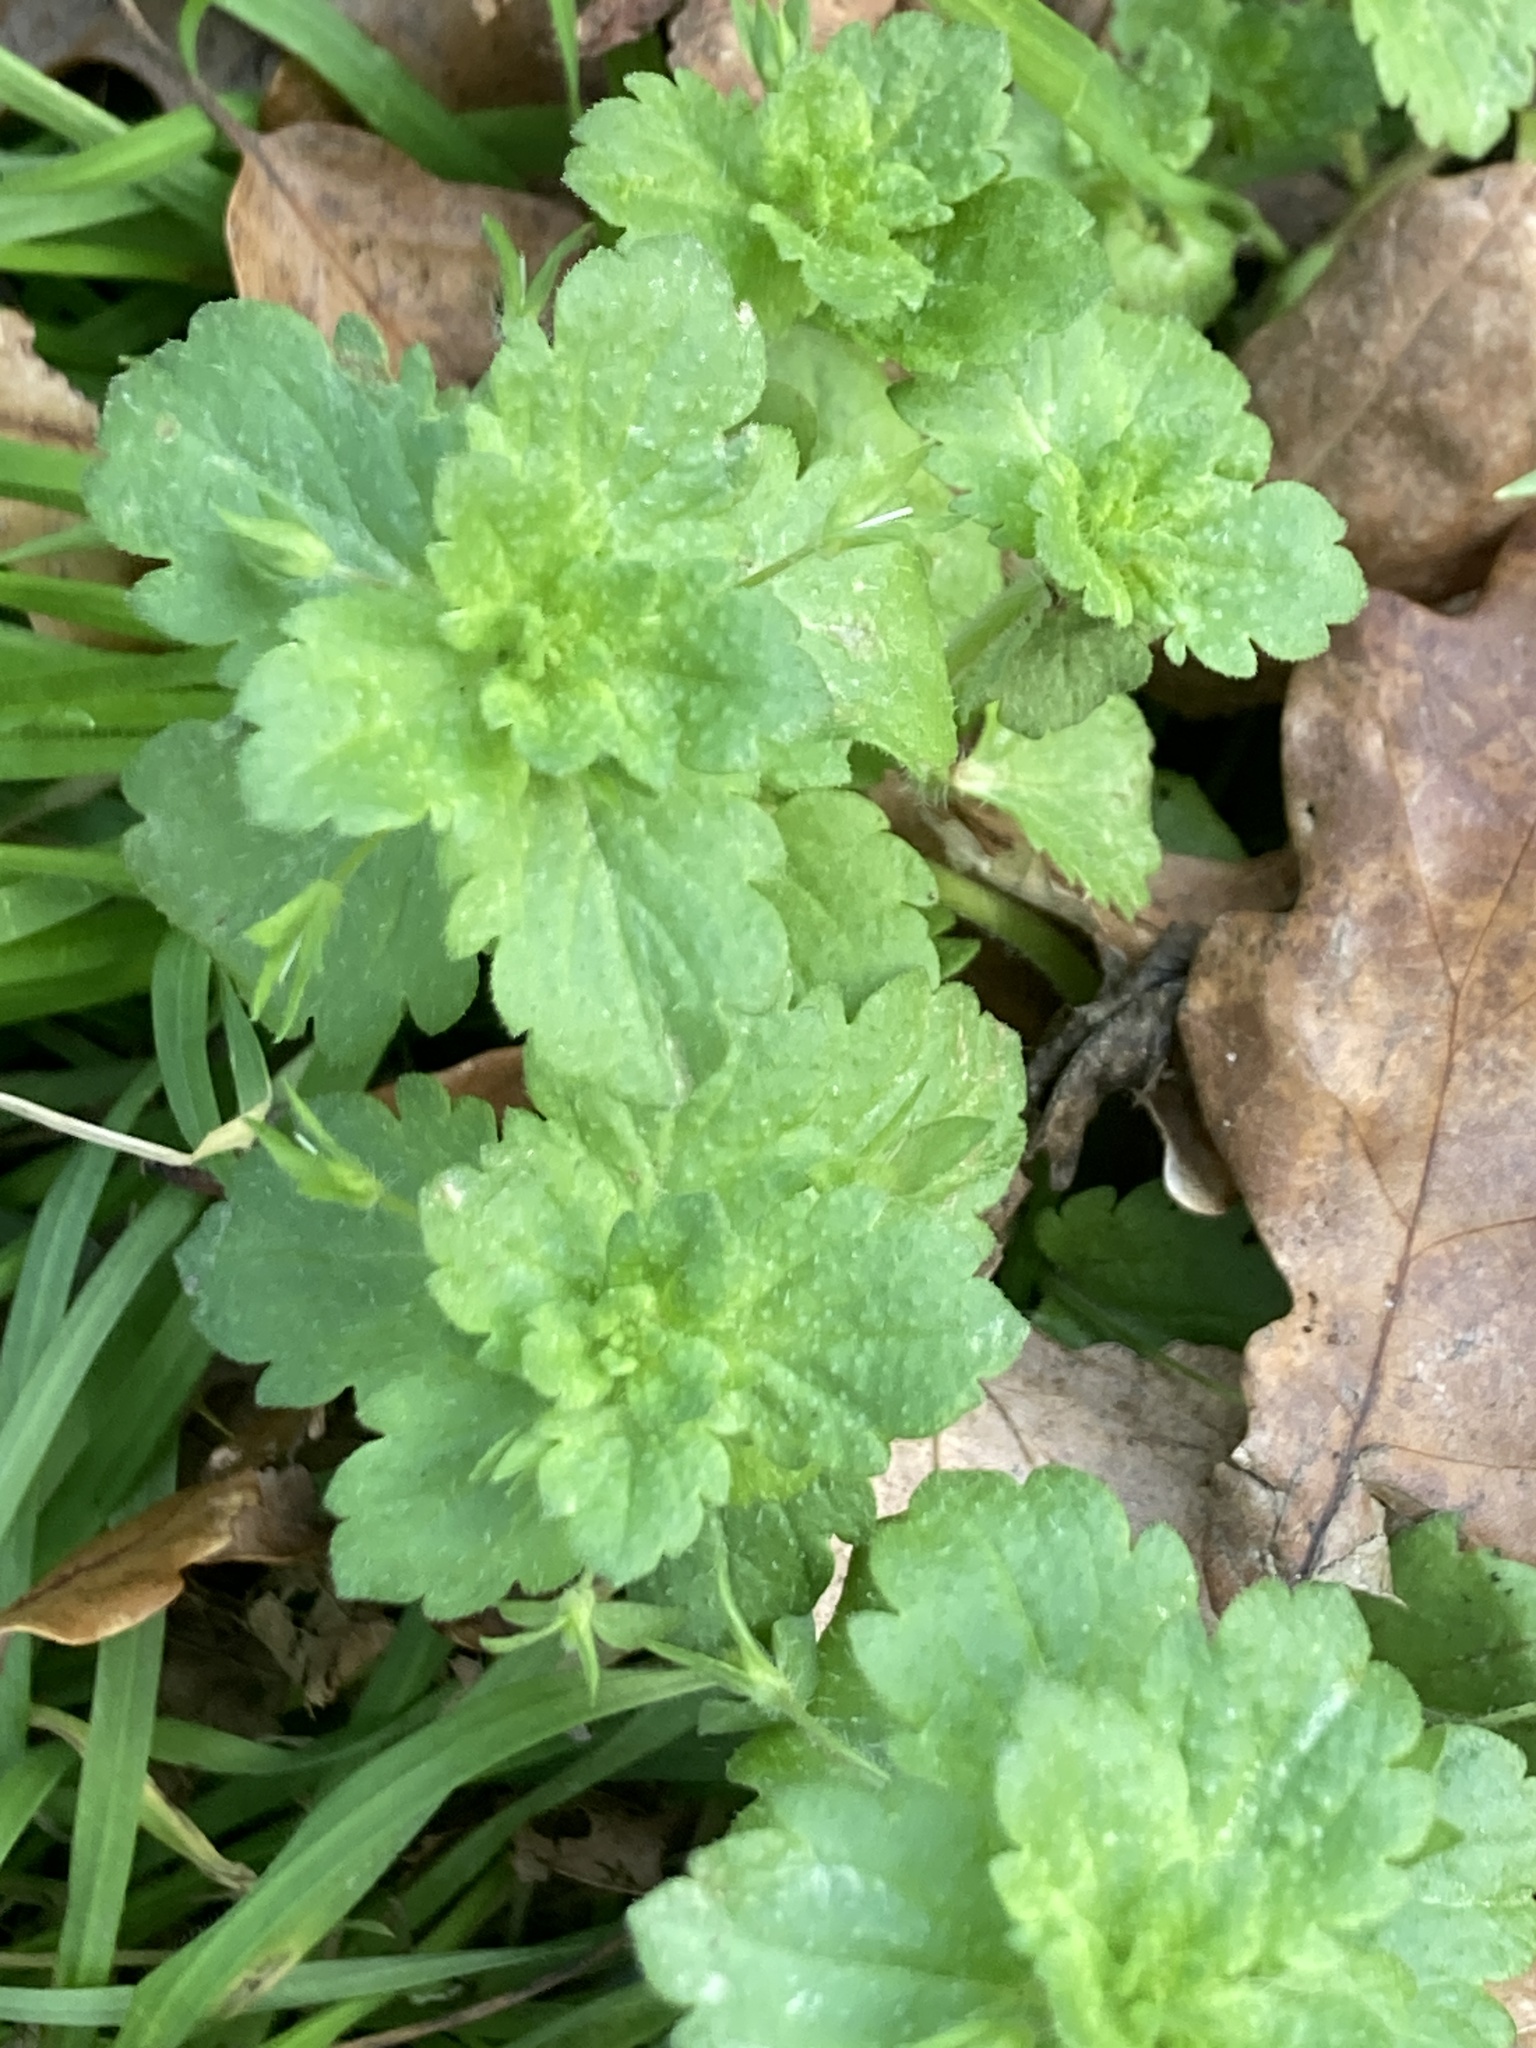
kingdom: Plantae
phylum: Tracheophyta
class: Magnoliopsida
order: Lamiales
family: Plantaginaceae
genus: Veronica
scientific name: Veronica persica
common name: Common field-speedwell
